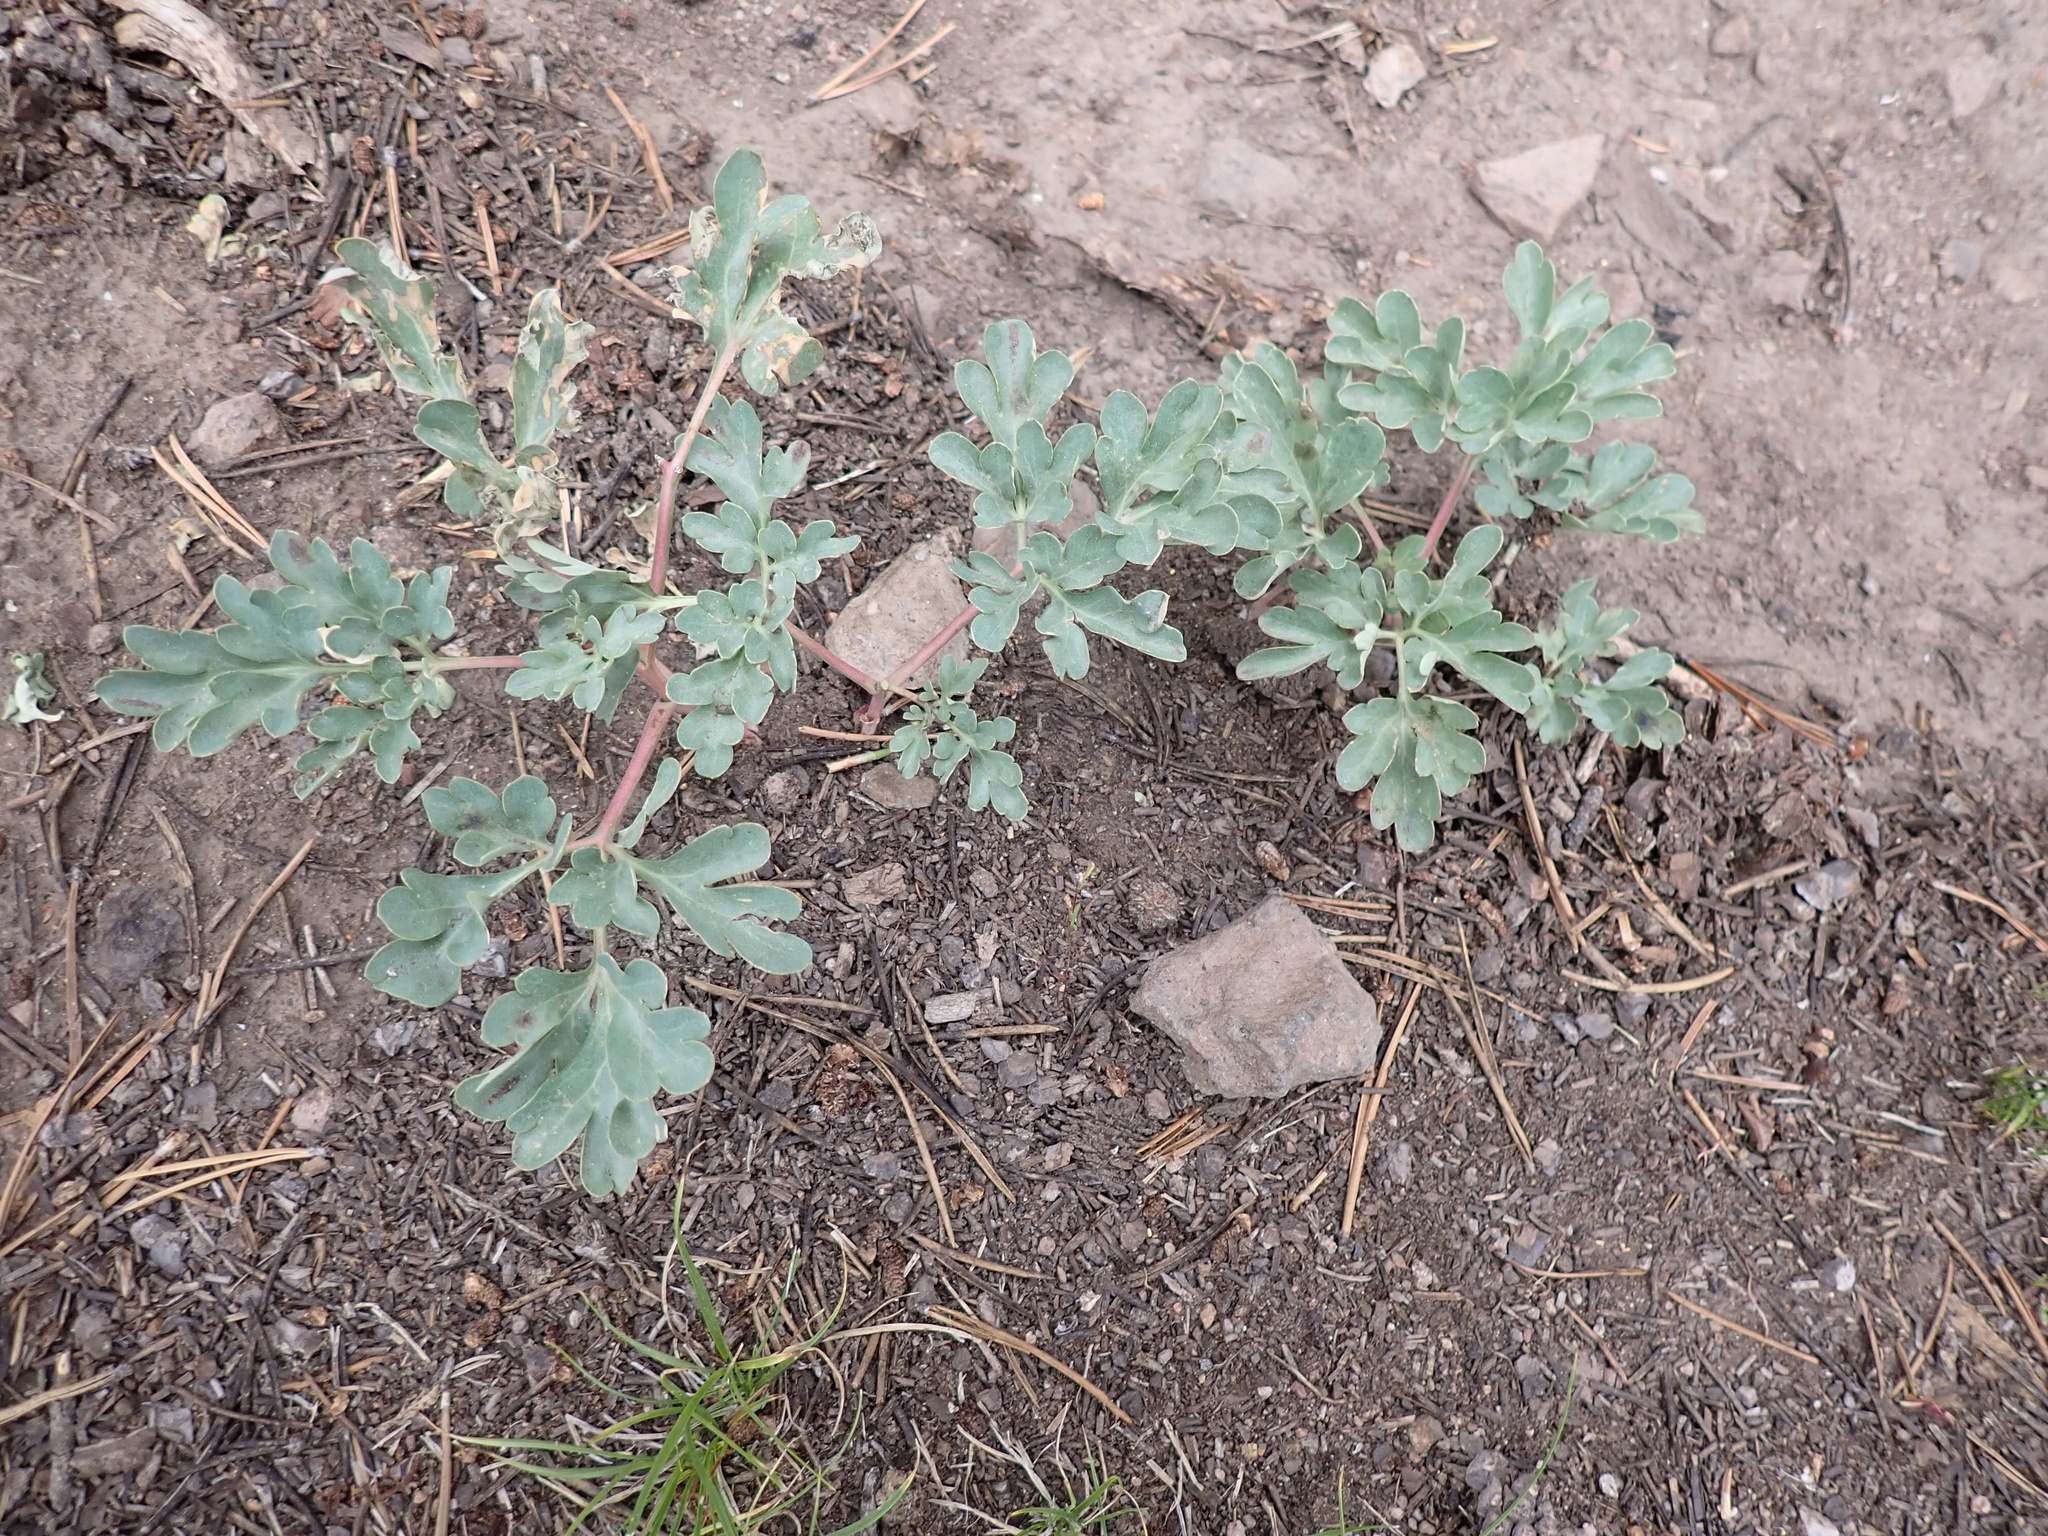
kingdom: Plantae
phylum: Tracheophyta
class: Magnoliopsida
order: Saxifragales
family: Paeoniaceae
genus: Paeonia
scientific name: Paeonia brownii
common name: Brown's peony
